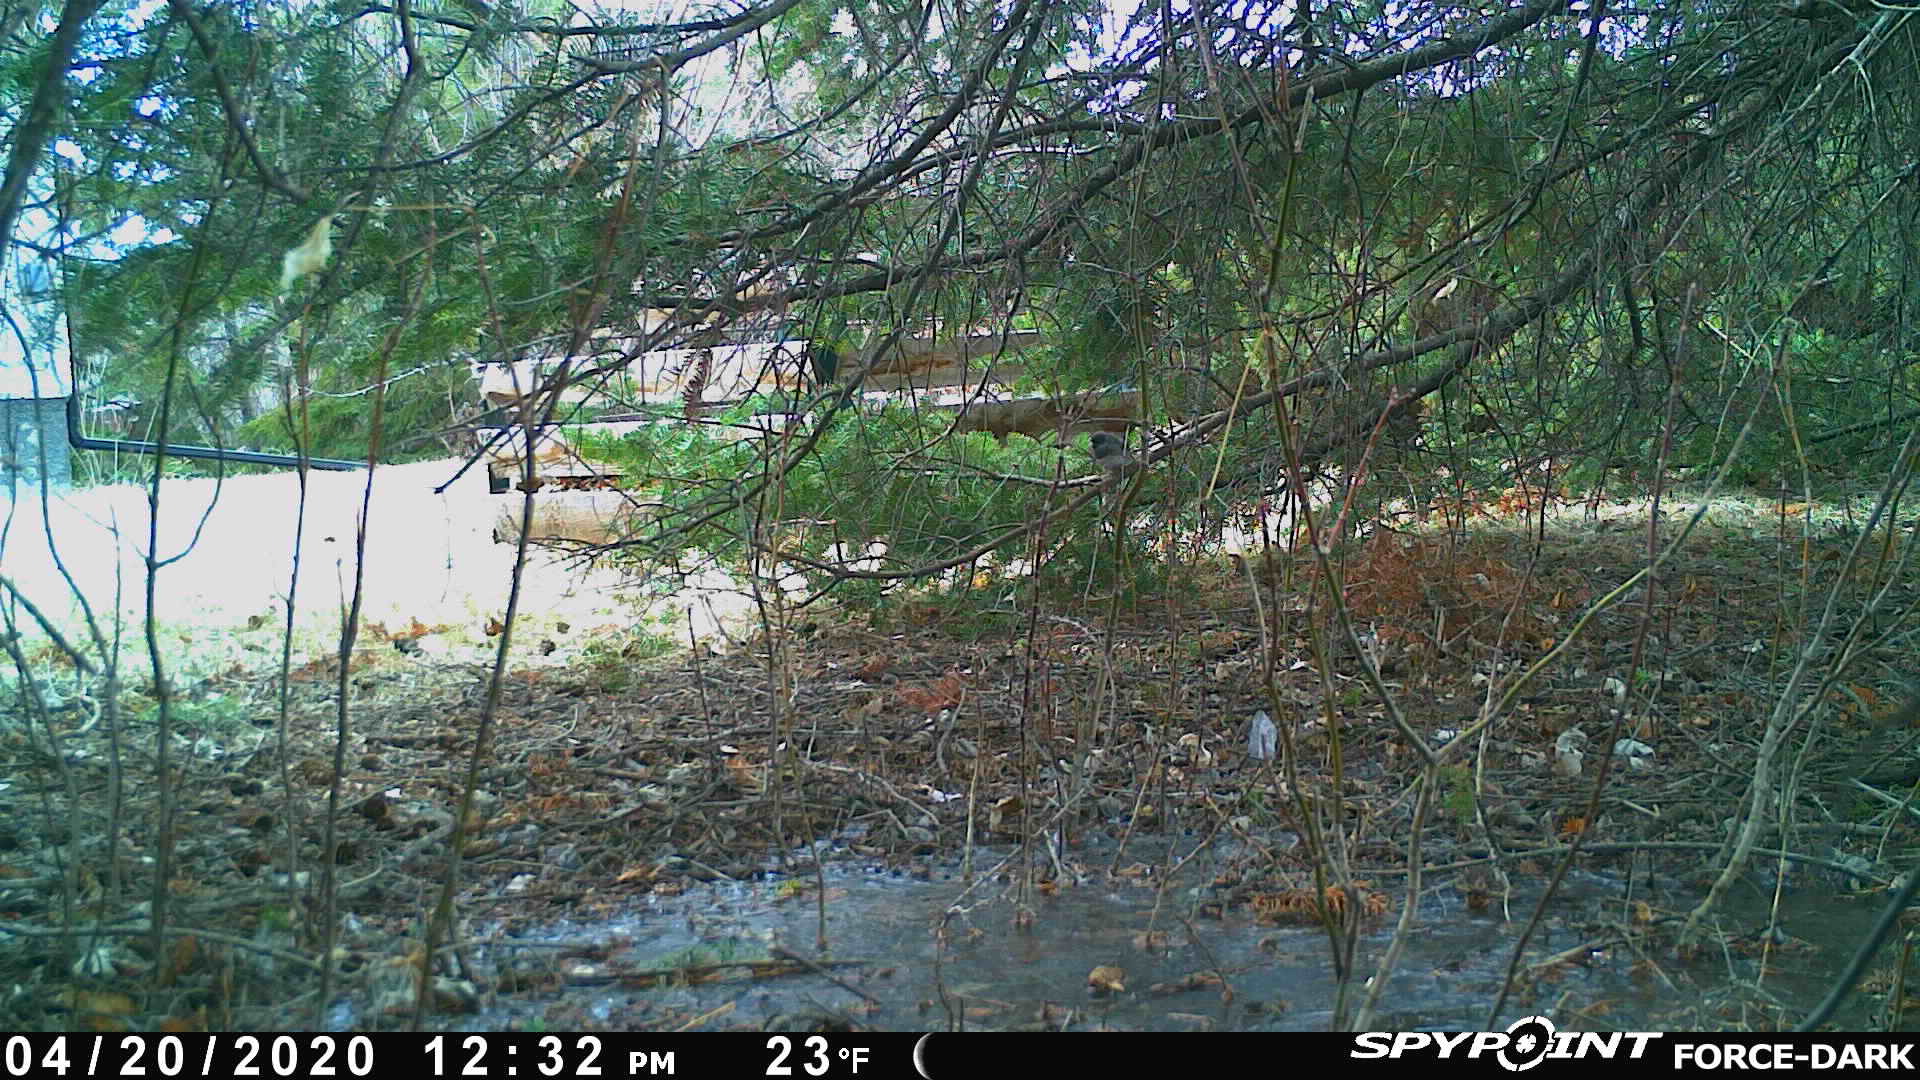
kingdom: Animalia
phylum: Chordata
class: Aves
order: Passeriformes
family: Passerellidae
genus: Junco
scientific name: Junco hyemalis
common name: Dark-eyed junco
